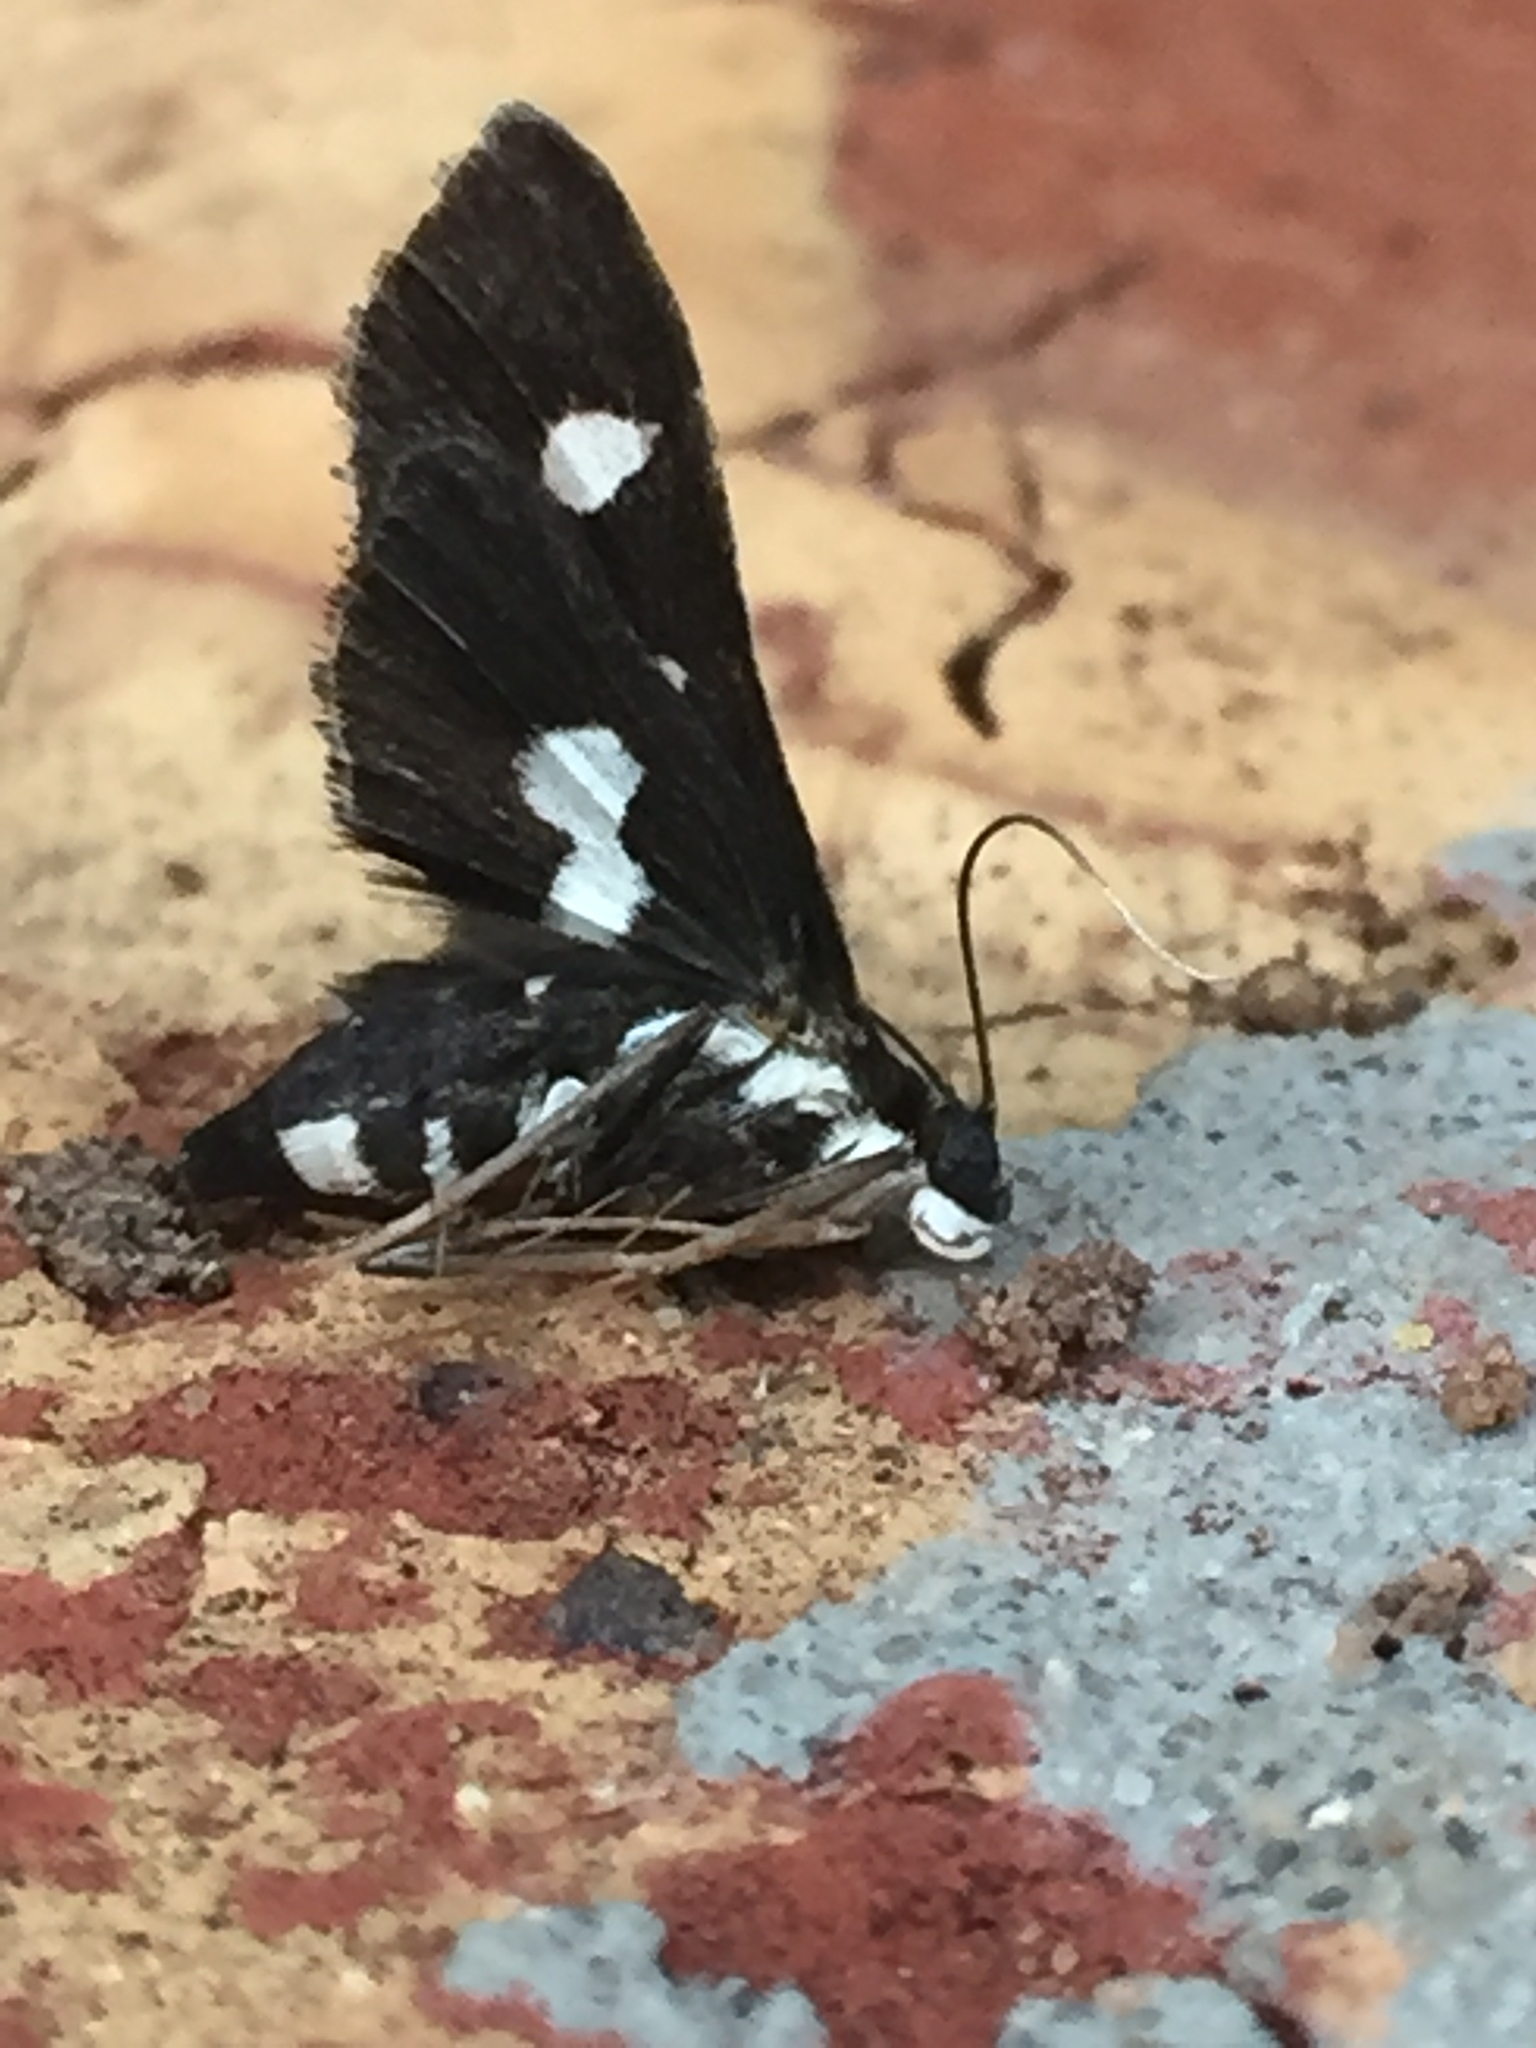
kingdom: Animalia
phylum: Arthropoda
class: Insecta
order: Lepidoptera
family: Crambidae
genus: Desmia
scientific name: Desmia funeralis
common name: Grape leaf folder moth
